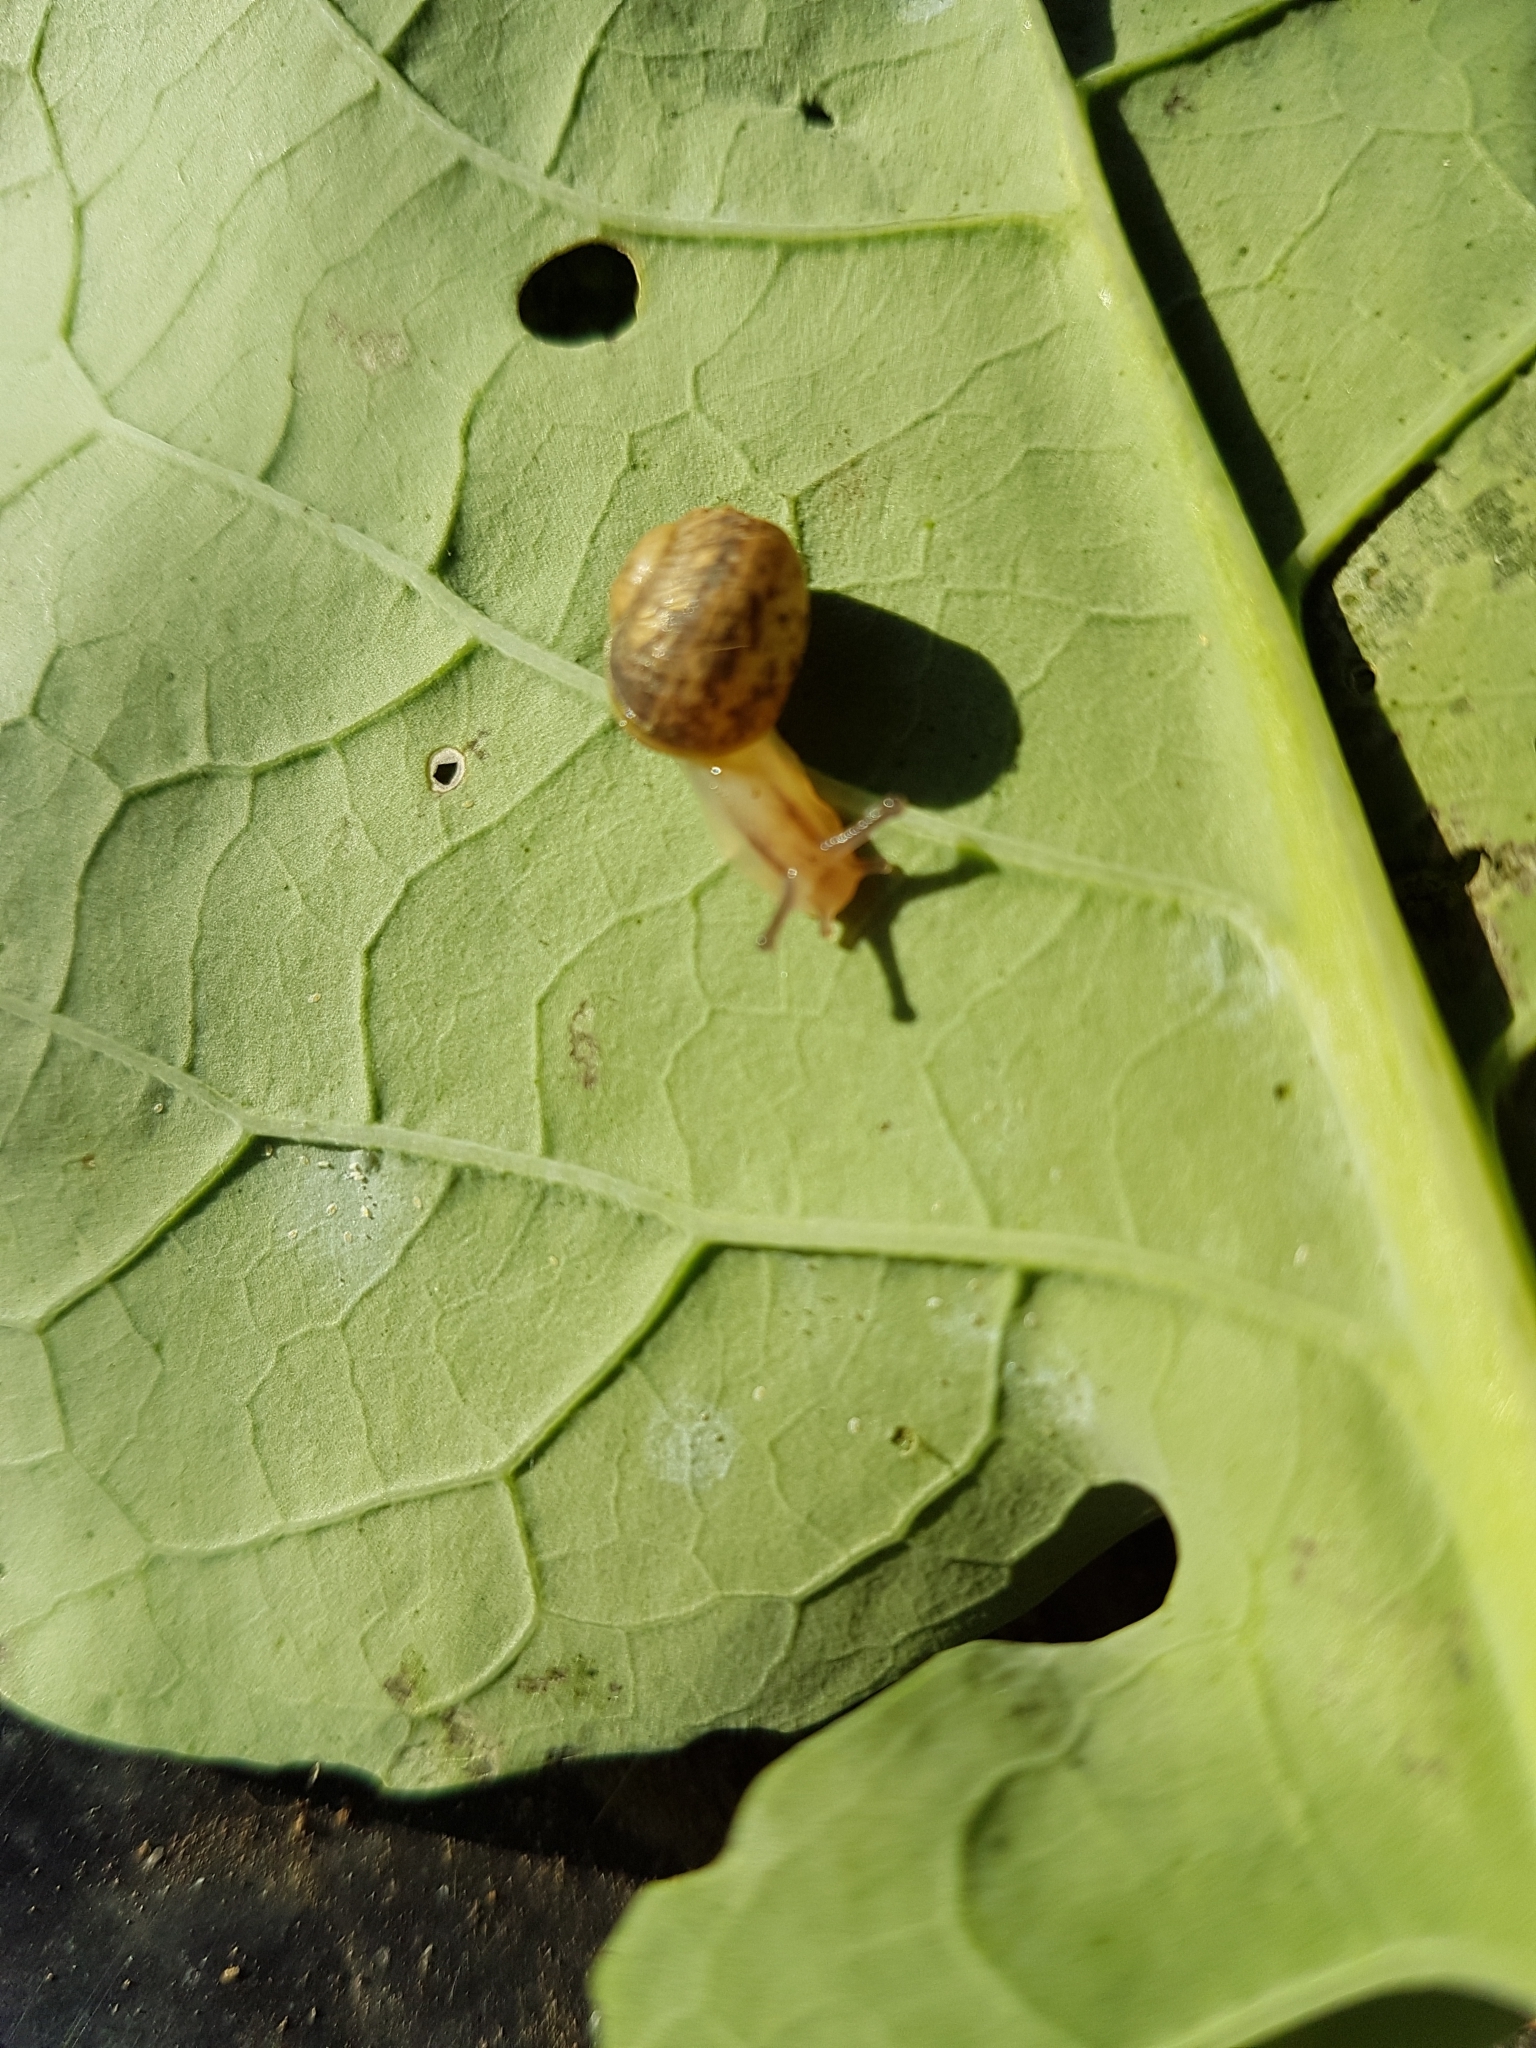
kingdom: Animalia
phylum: Mollusca
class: Gastropoda
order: Stylommatophora
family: Helicidae
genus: Cornu
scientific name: Cornu aspersum
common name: Brown garden snail
